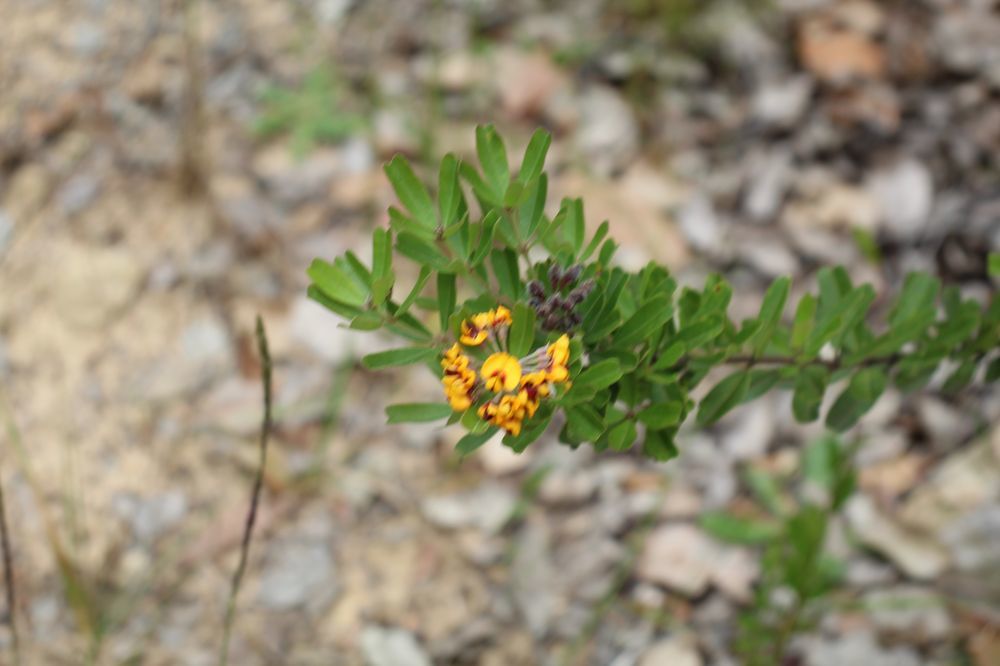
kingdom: Plantae
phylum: Tracheophyta
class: Magnoliopsida
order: Fabales
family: Fabaceae
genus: Gastrolobium
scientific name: Gastrolobium bilobum
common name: Heart-leaf poisonbush
